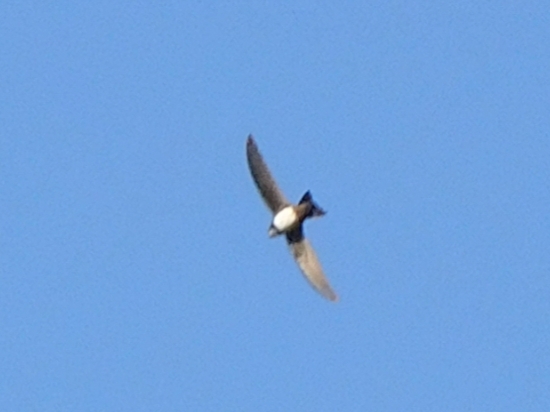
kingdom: Animalia
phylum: Chordata
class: Aves
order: Apodiformes
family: Apodidae
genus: Tachymarptis
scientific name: Tachymarptis melba
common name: Alpine swift
